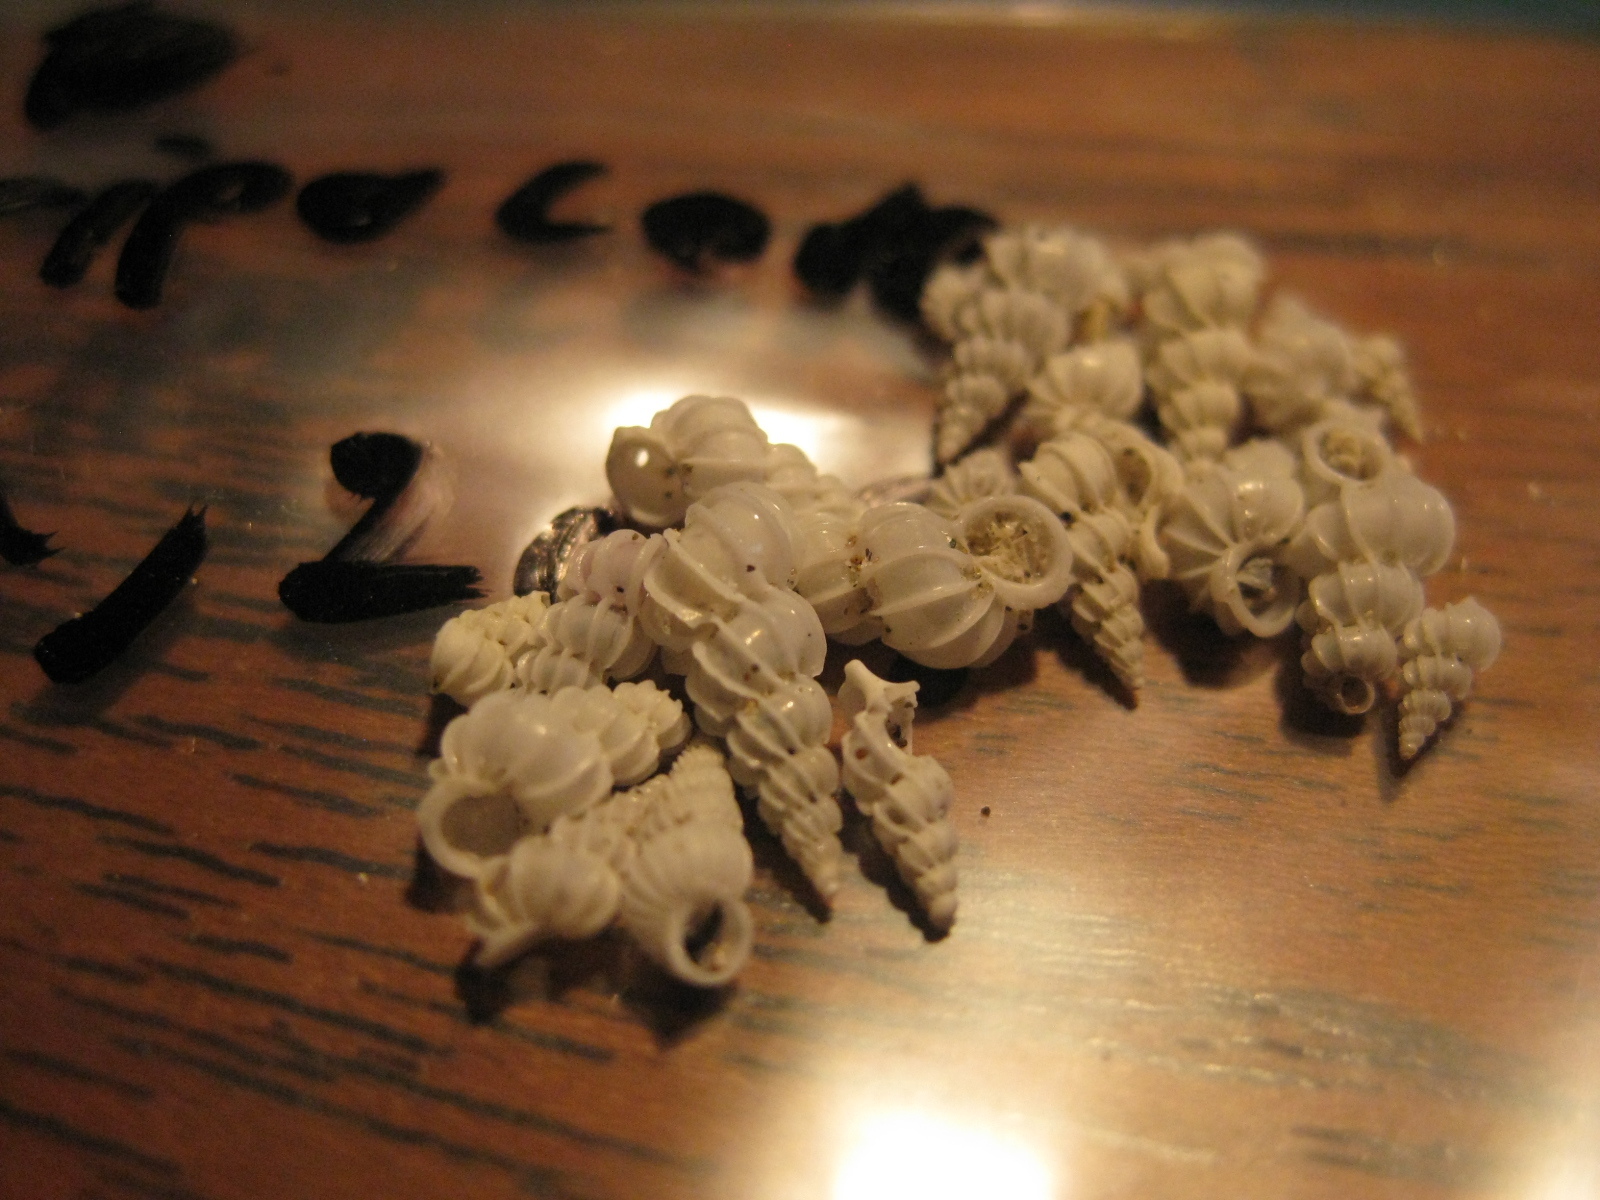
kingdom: Animalia
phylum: Mollusca
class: Gastropoda
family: Epitoniidae
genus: Epitonium
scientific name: Epitonium minorum
